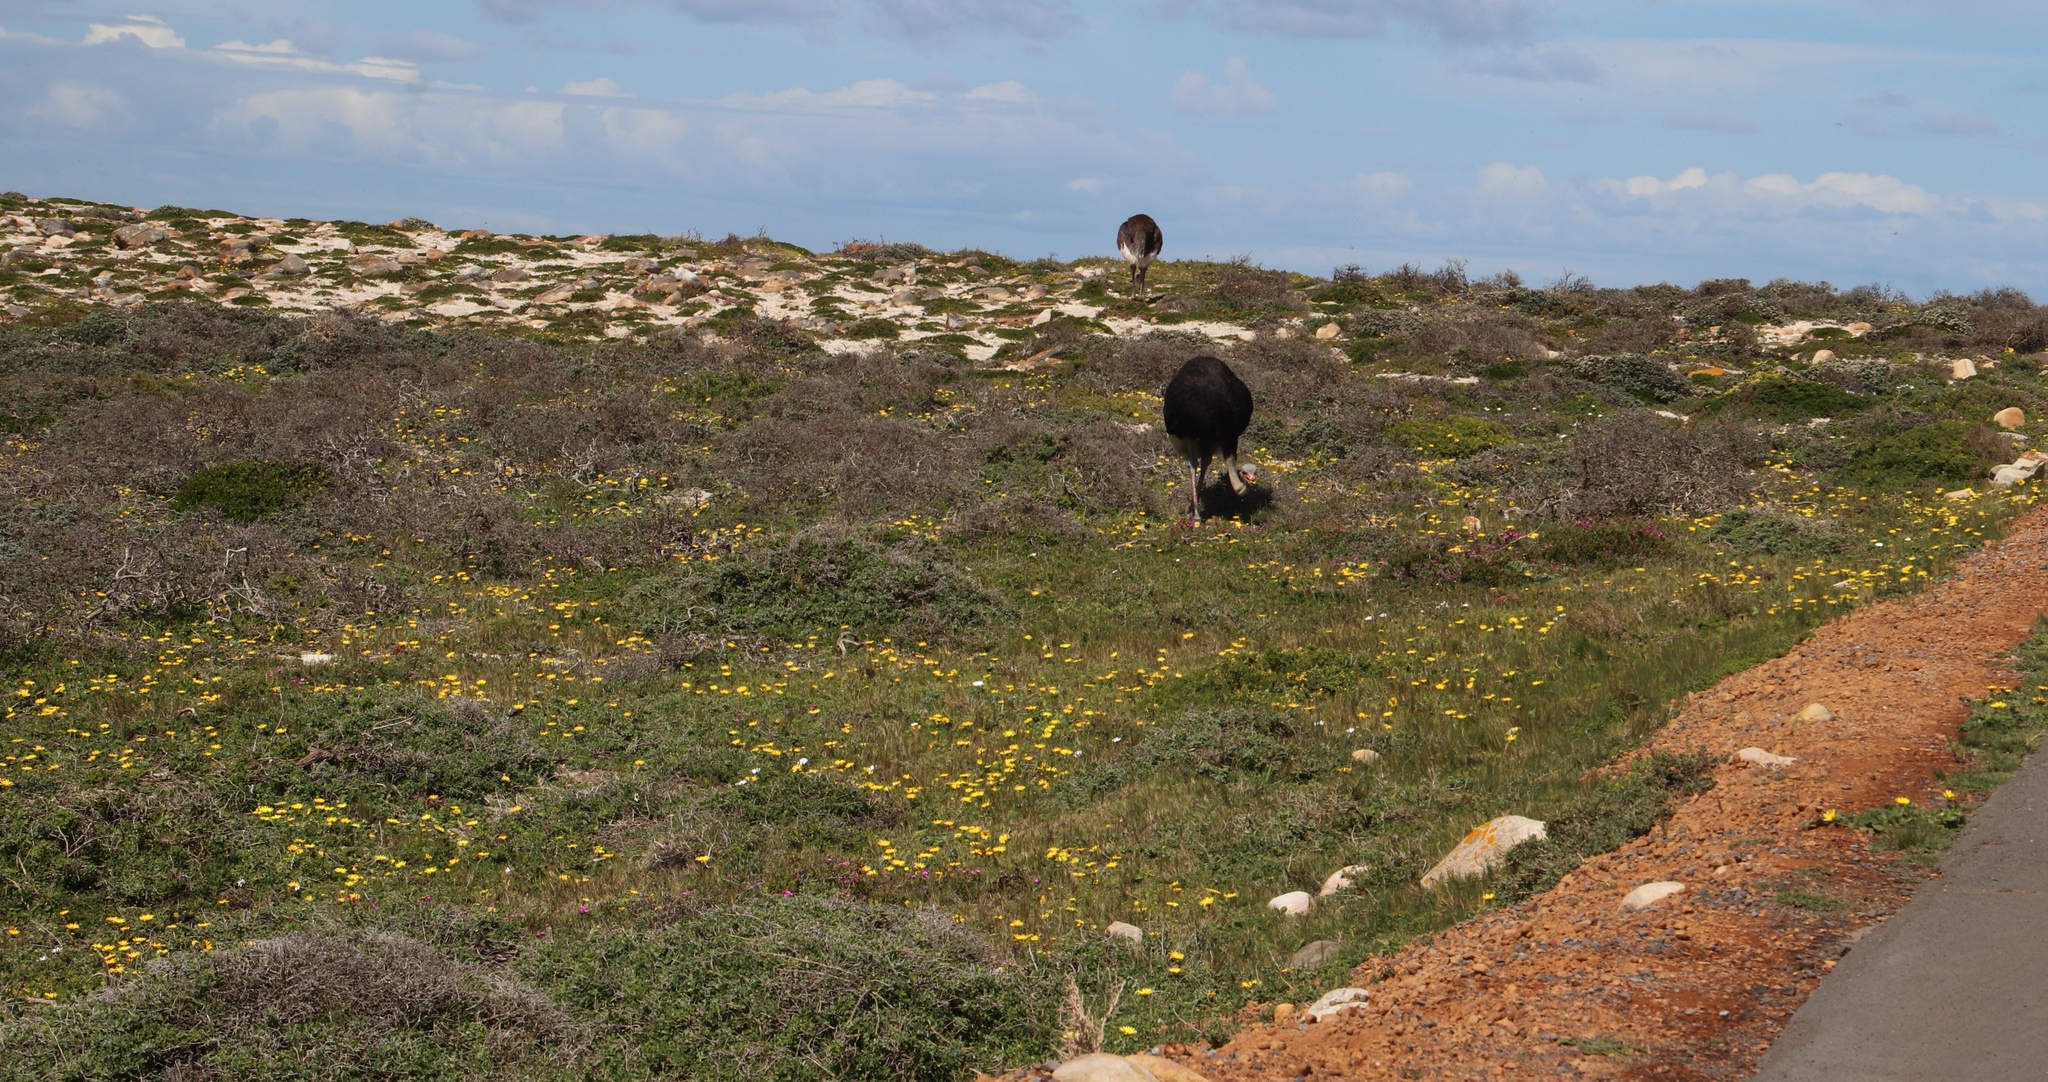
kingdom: Animalia
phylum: Chordata
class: Aves
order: Struthioniformes
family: Struthionidae
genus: Struthio
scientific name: Struthio camelus
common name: Common ostrich
